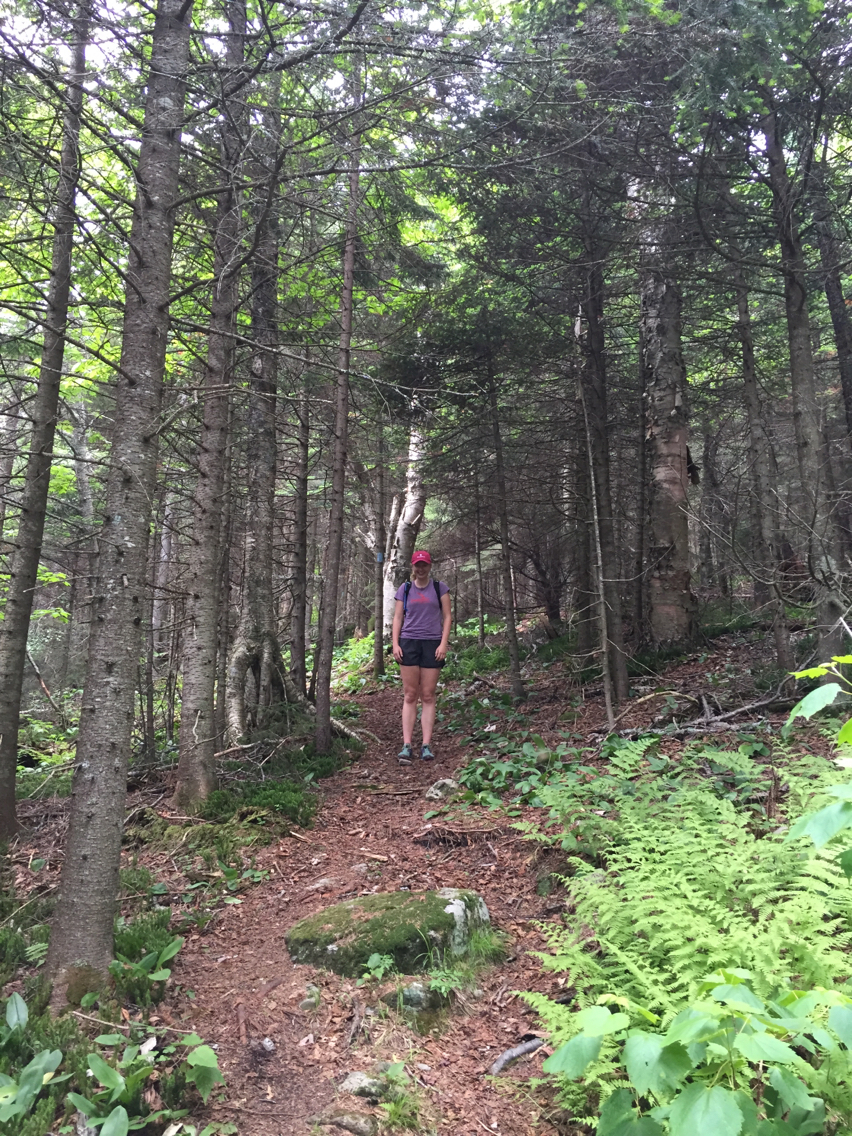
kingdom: Plantae
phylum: Tracheophyta
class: Pinopsida
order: Pinales
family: Pinaceae
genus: Picea
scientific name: Picea rubens
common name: Red spruce
